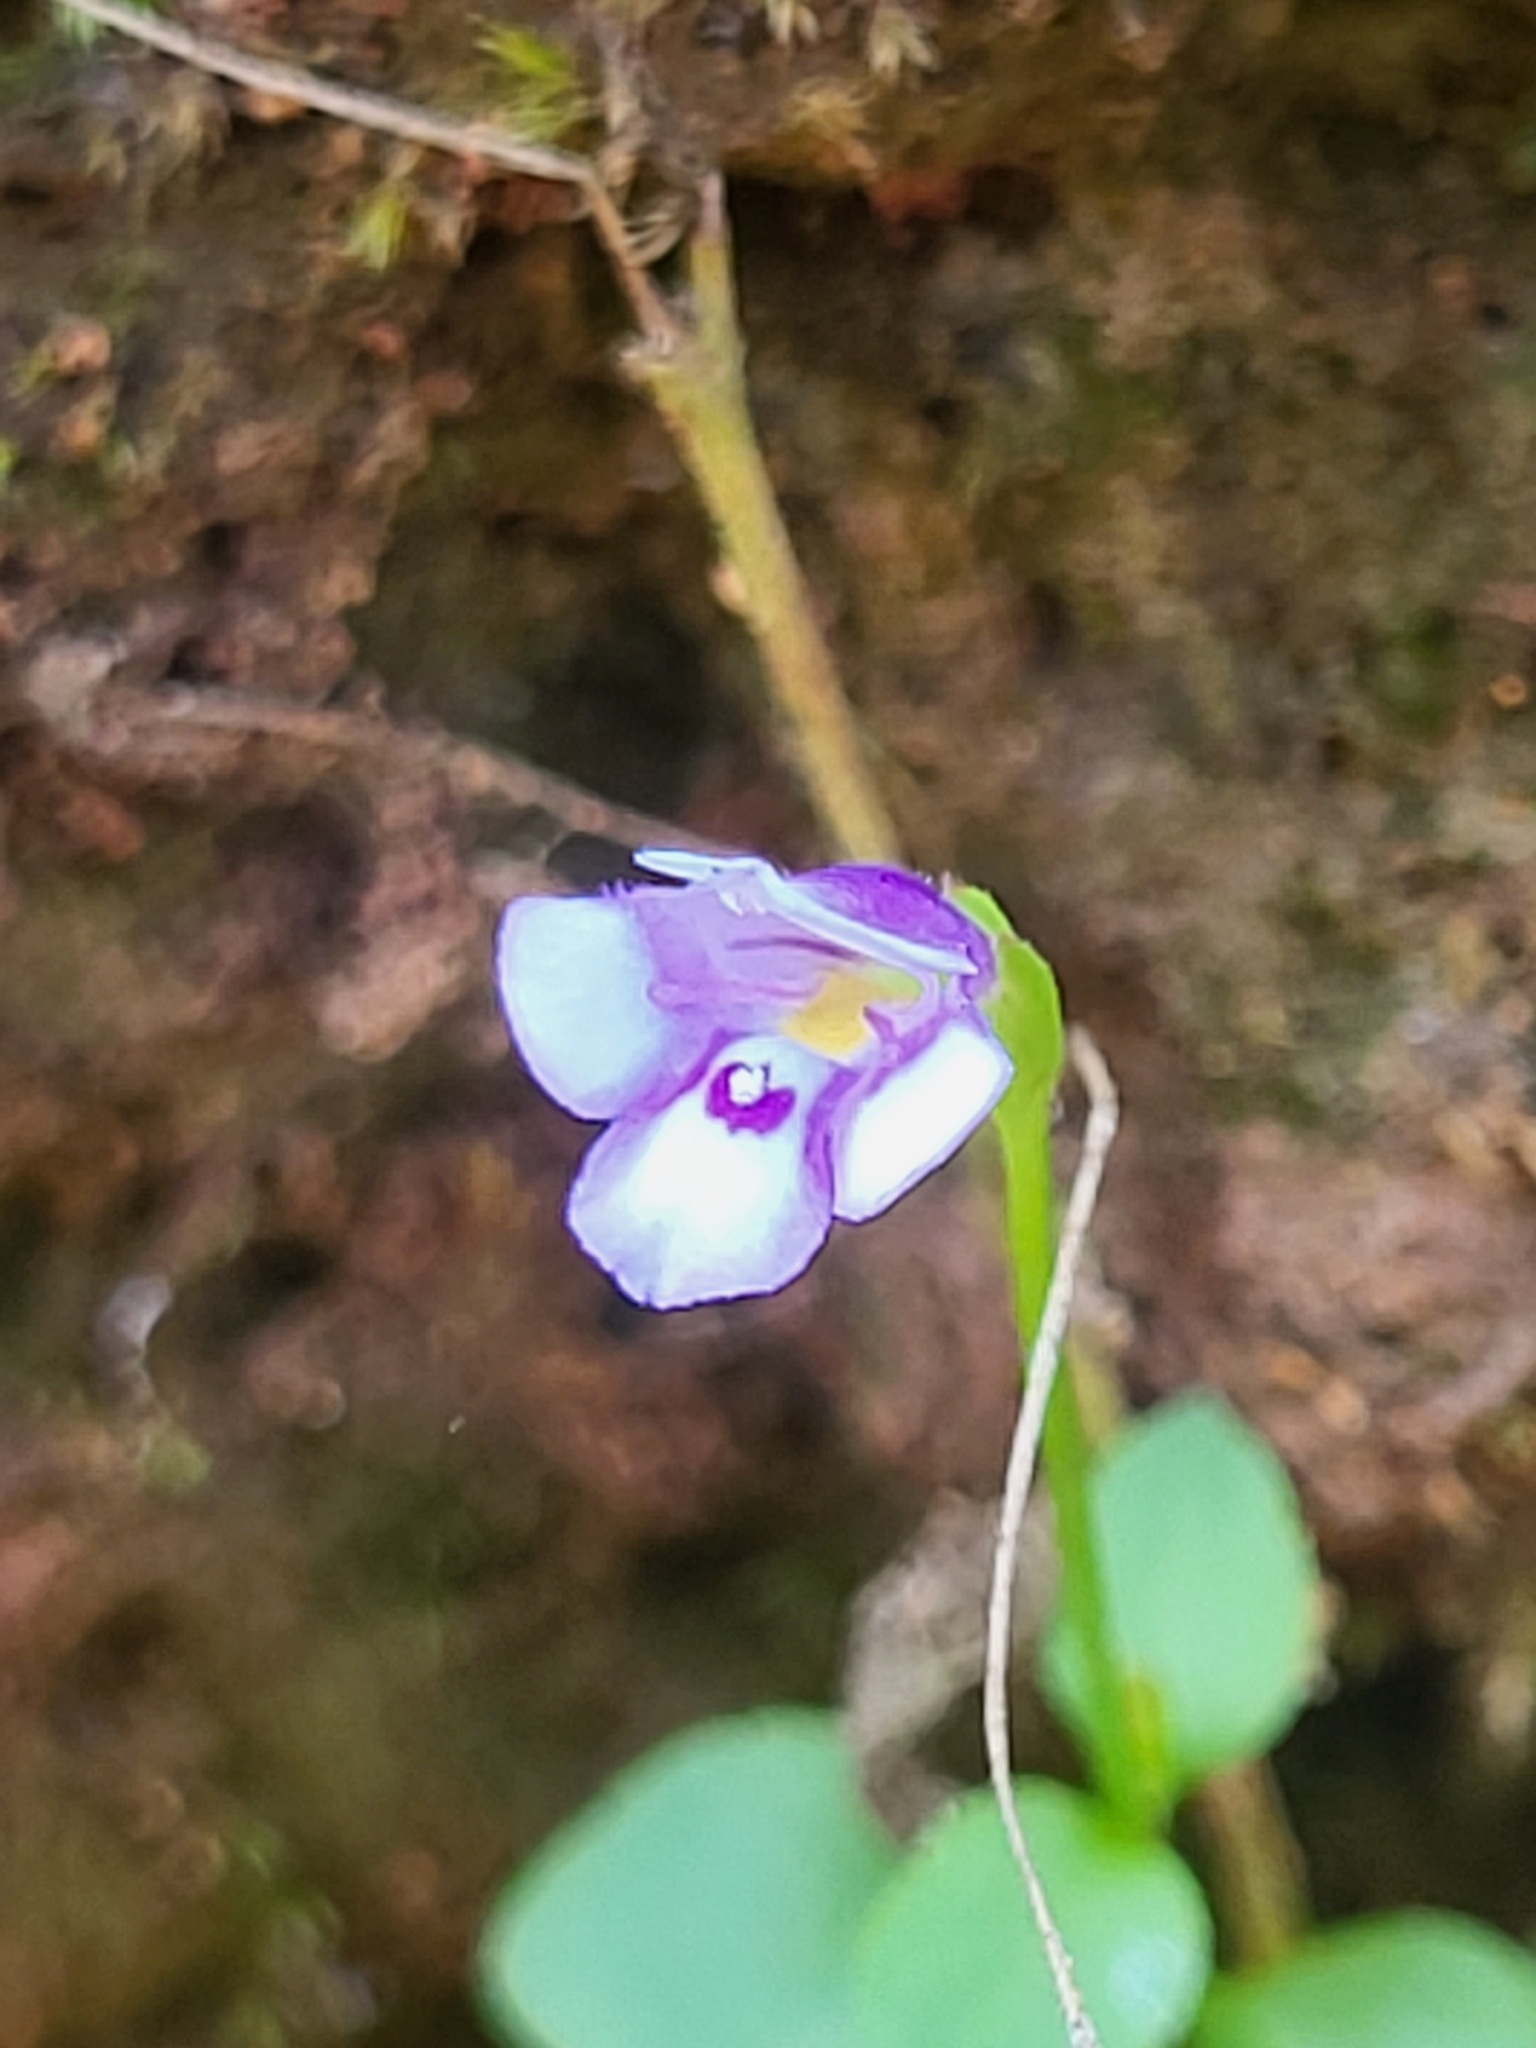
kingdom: Plantae
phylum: Tracheophyta
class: Magnoliopsida
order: Lamiales
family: Linderniaceae
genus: Torenia
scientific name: Torenia crustacea
